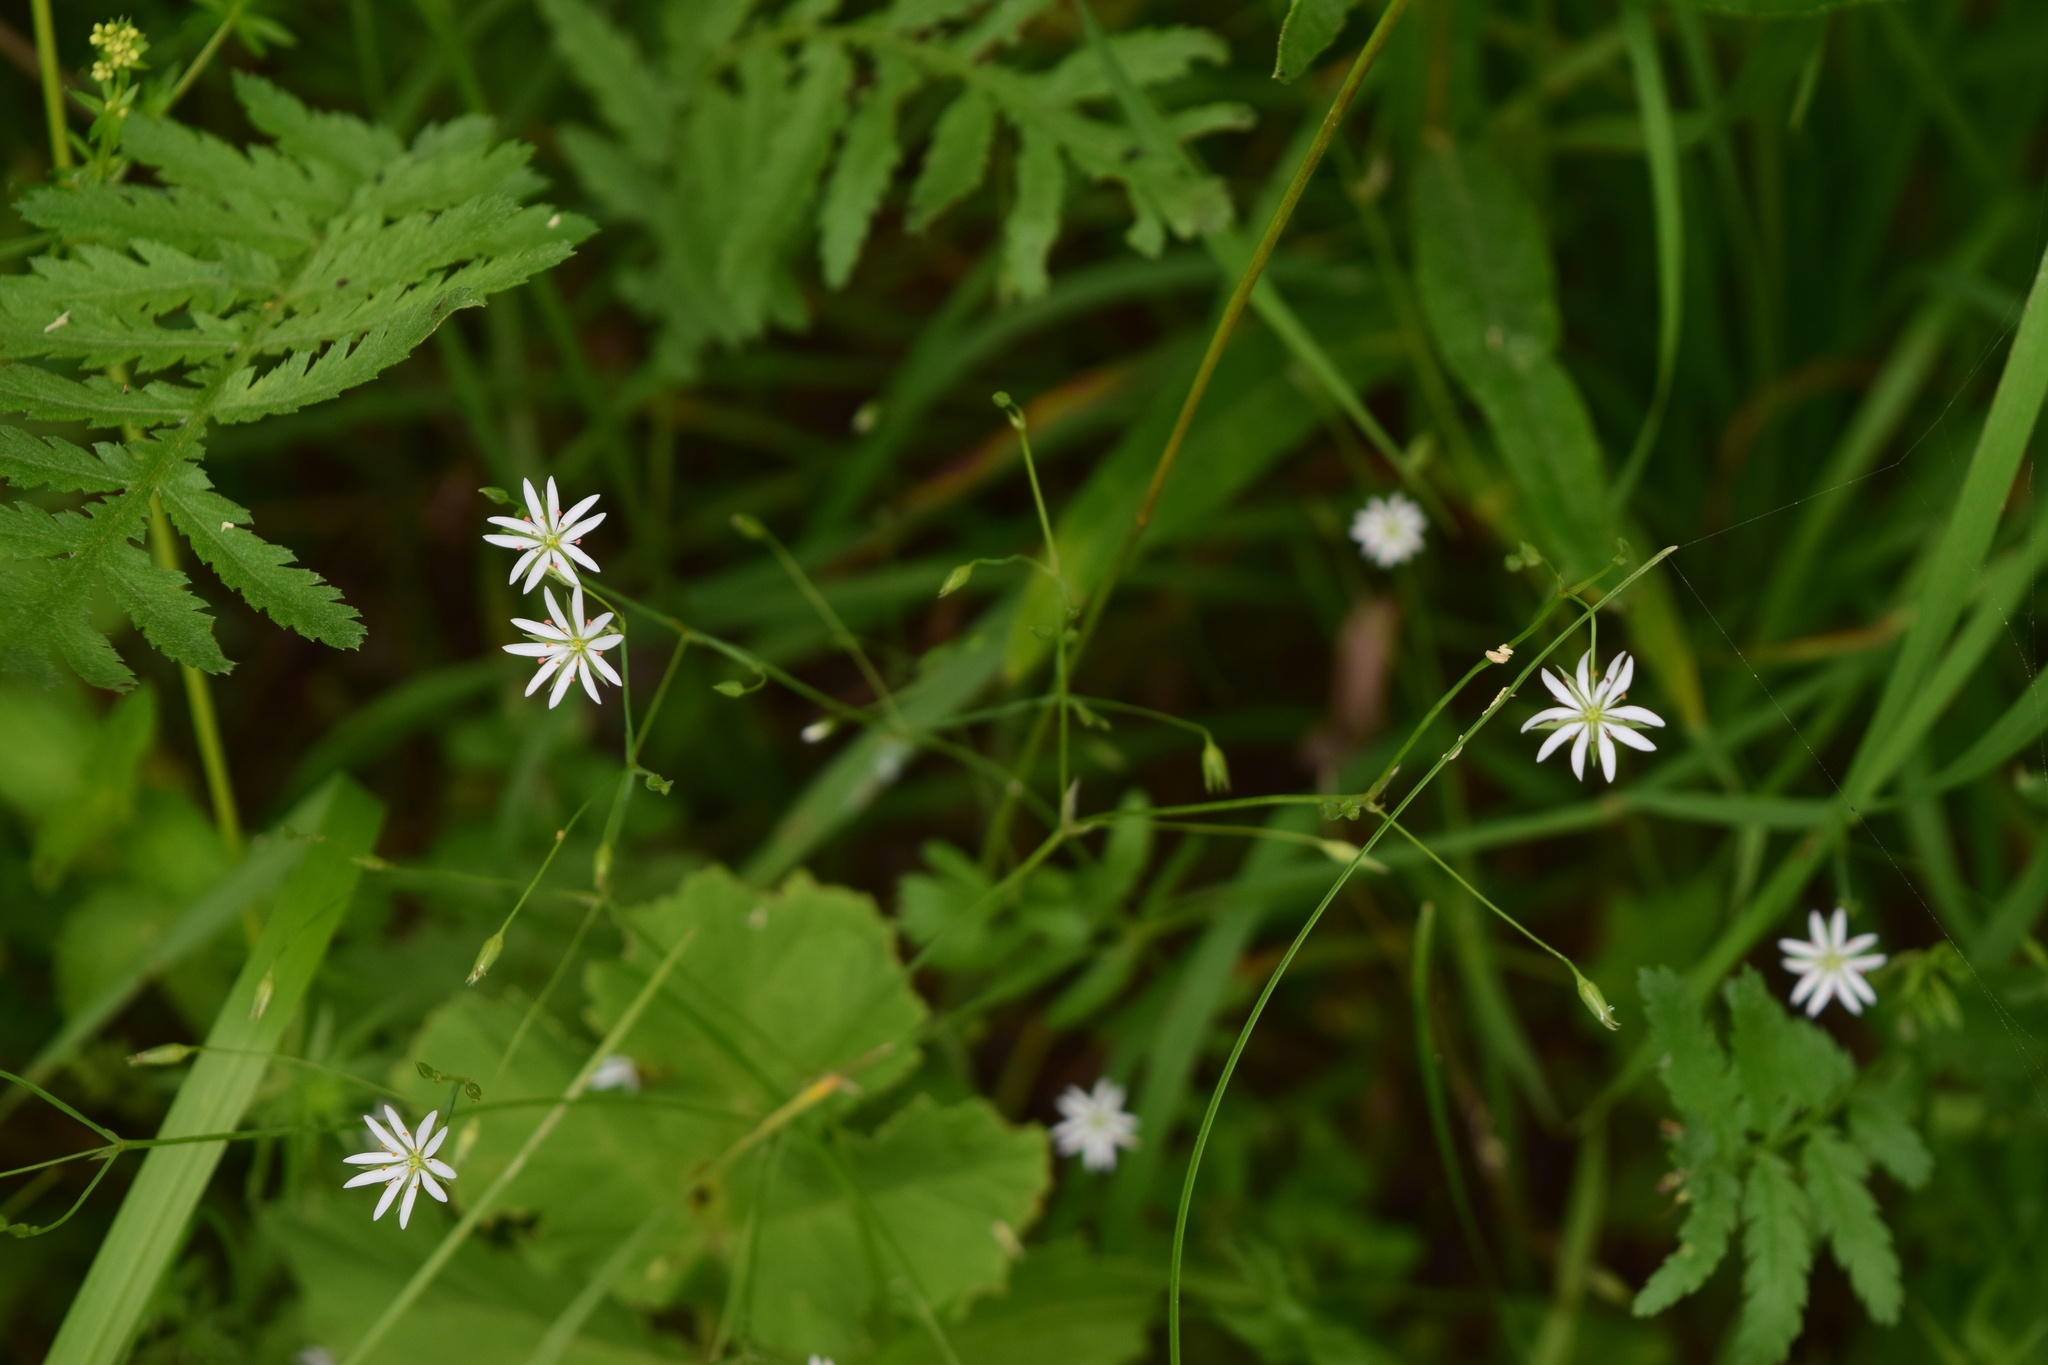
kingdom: Plantae
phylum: Tracheophyta
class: Magnoliopsida
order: Caryophyllales
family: Caryophyllaceae
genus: Stellaria
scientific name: Stellaria graminea
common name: Grass-like starwort
